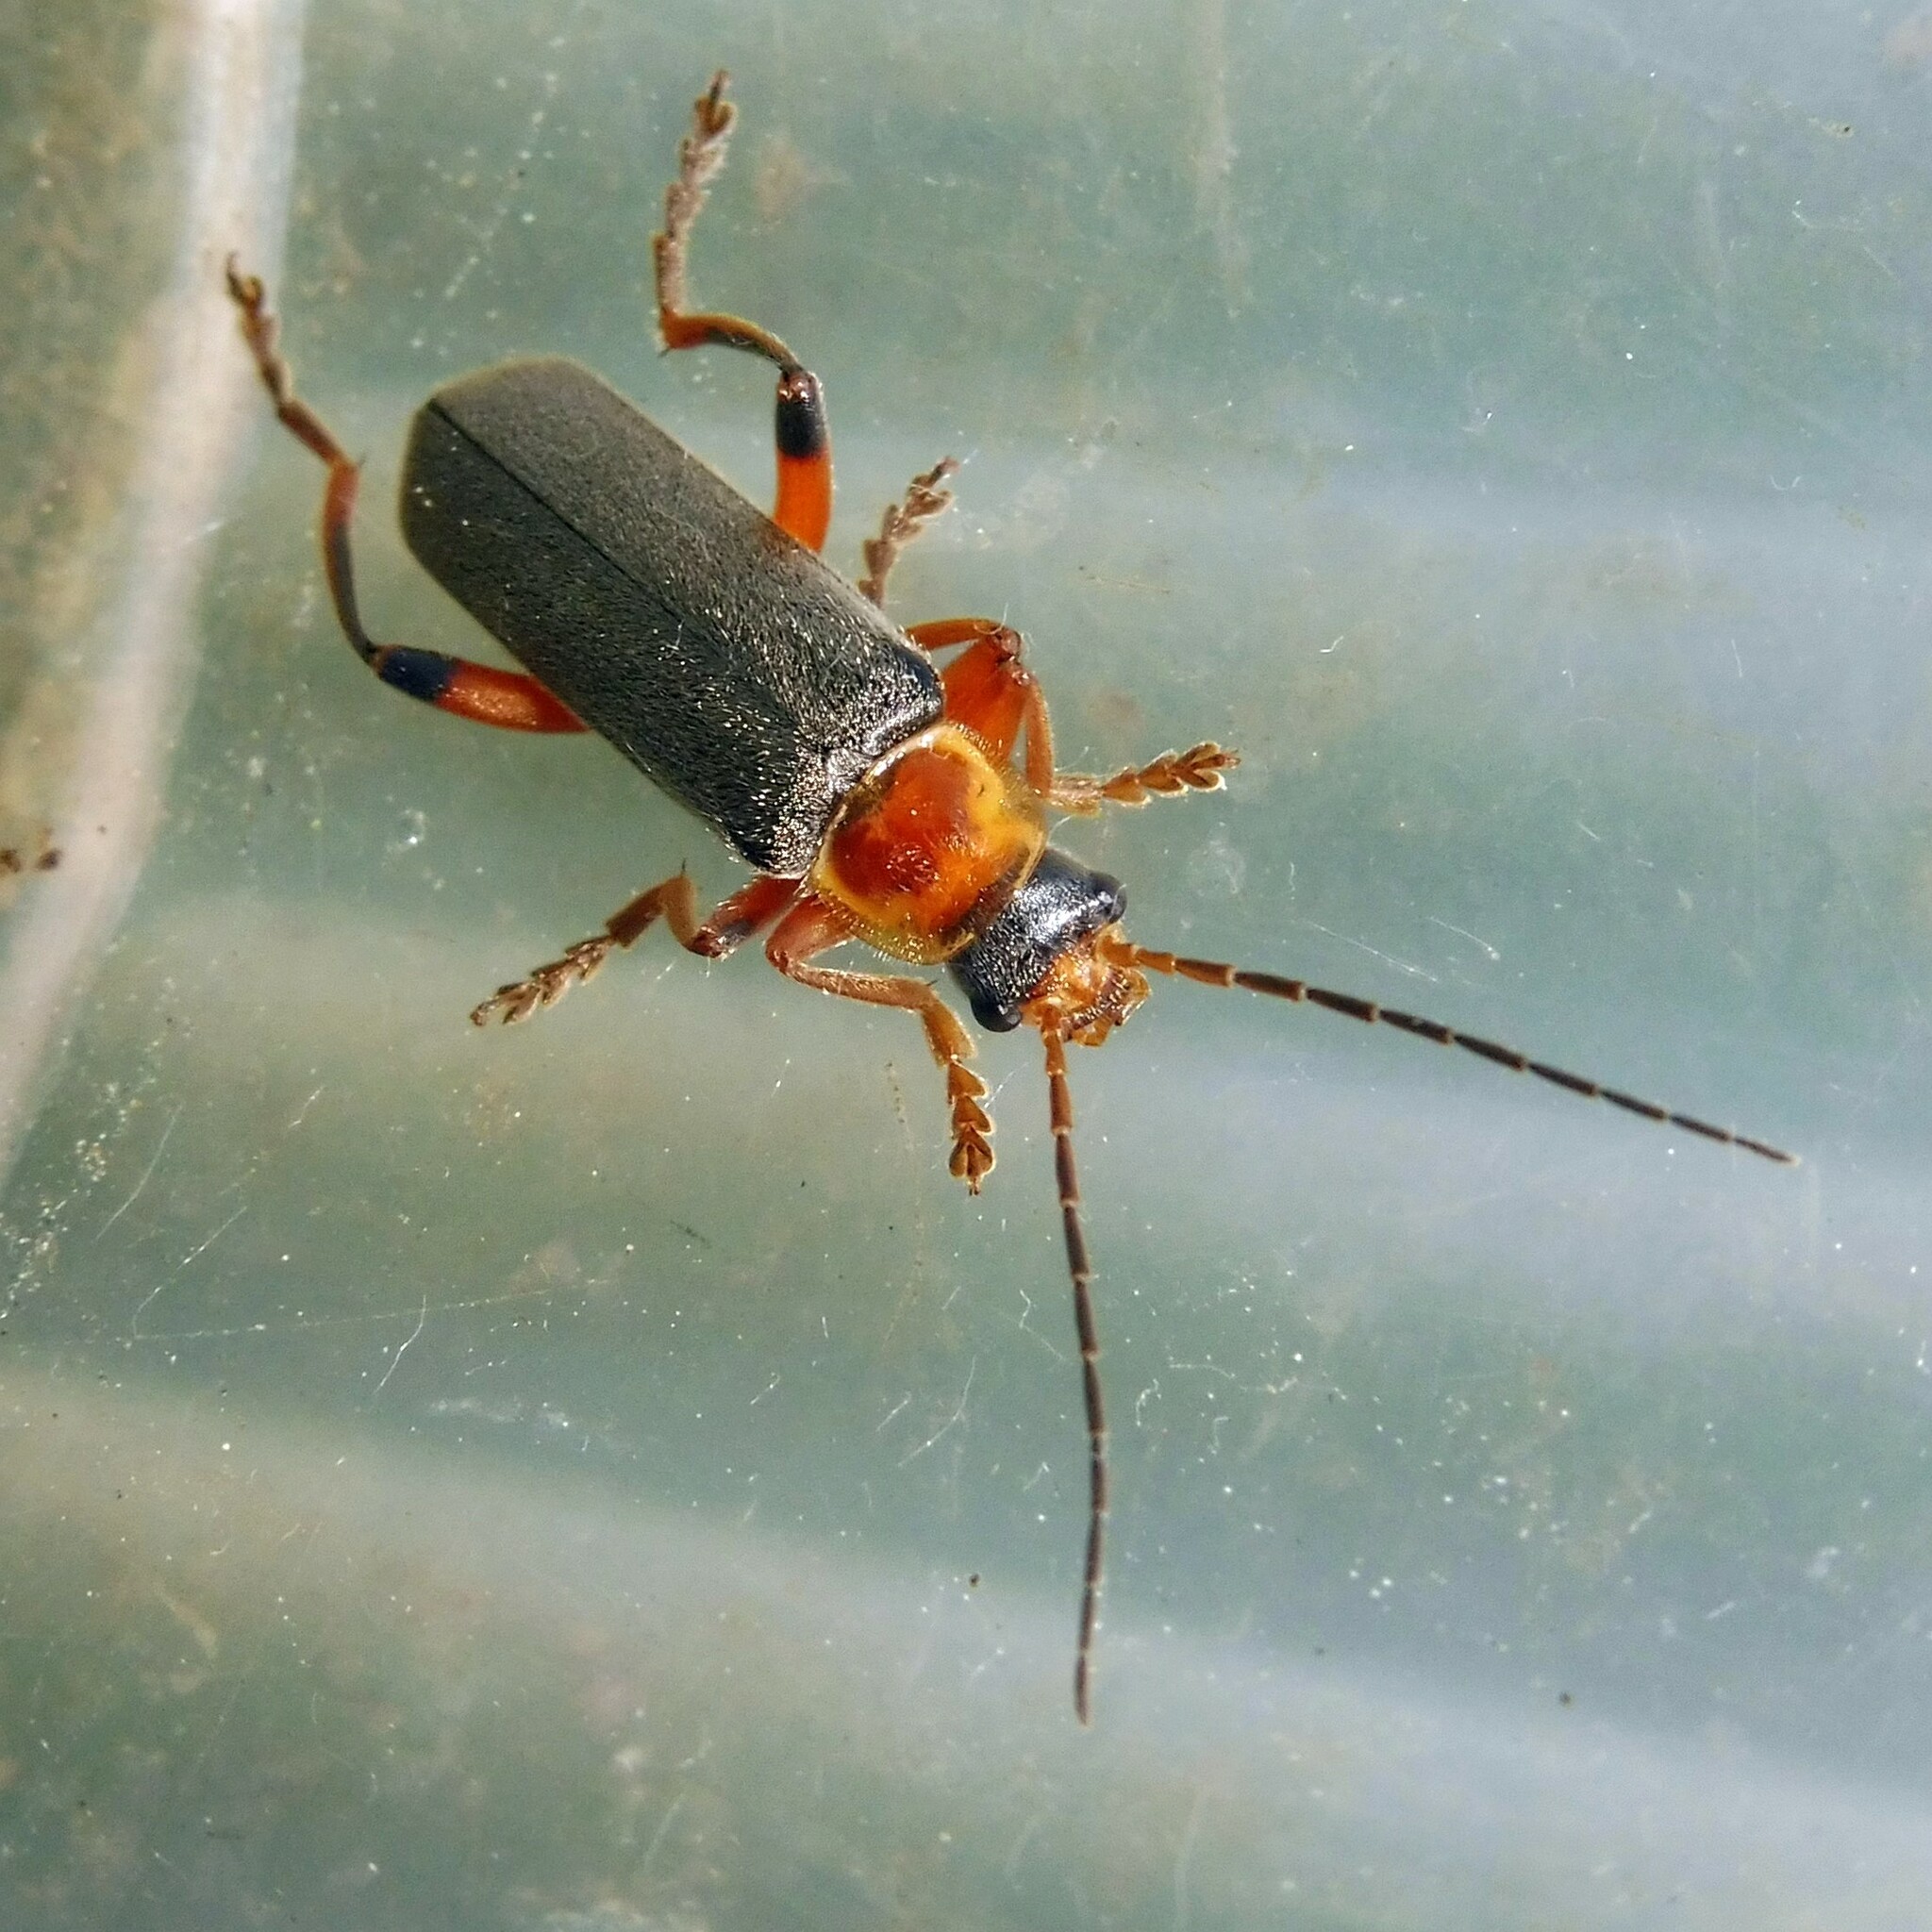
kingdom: Animalia
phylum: Arthropoda
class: Insecta
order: Coleoptera
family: Cantharidae
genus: Cantharis
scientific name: Cantharis nigricans
